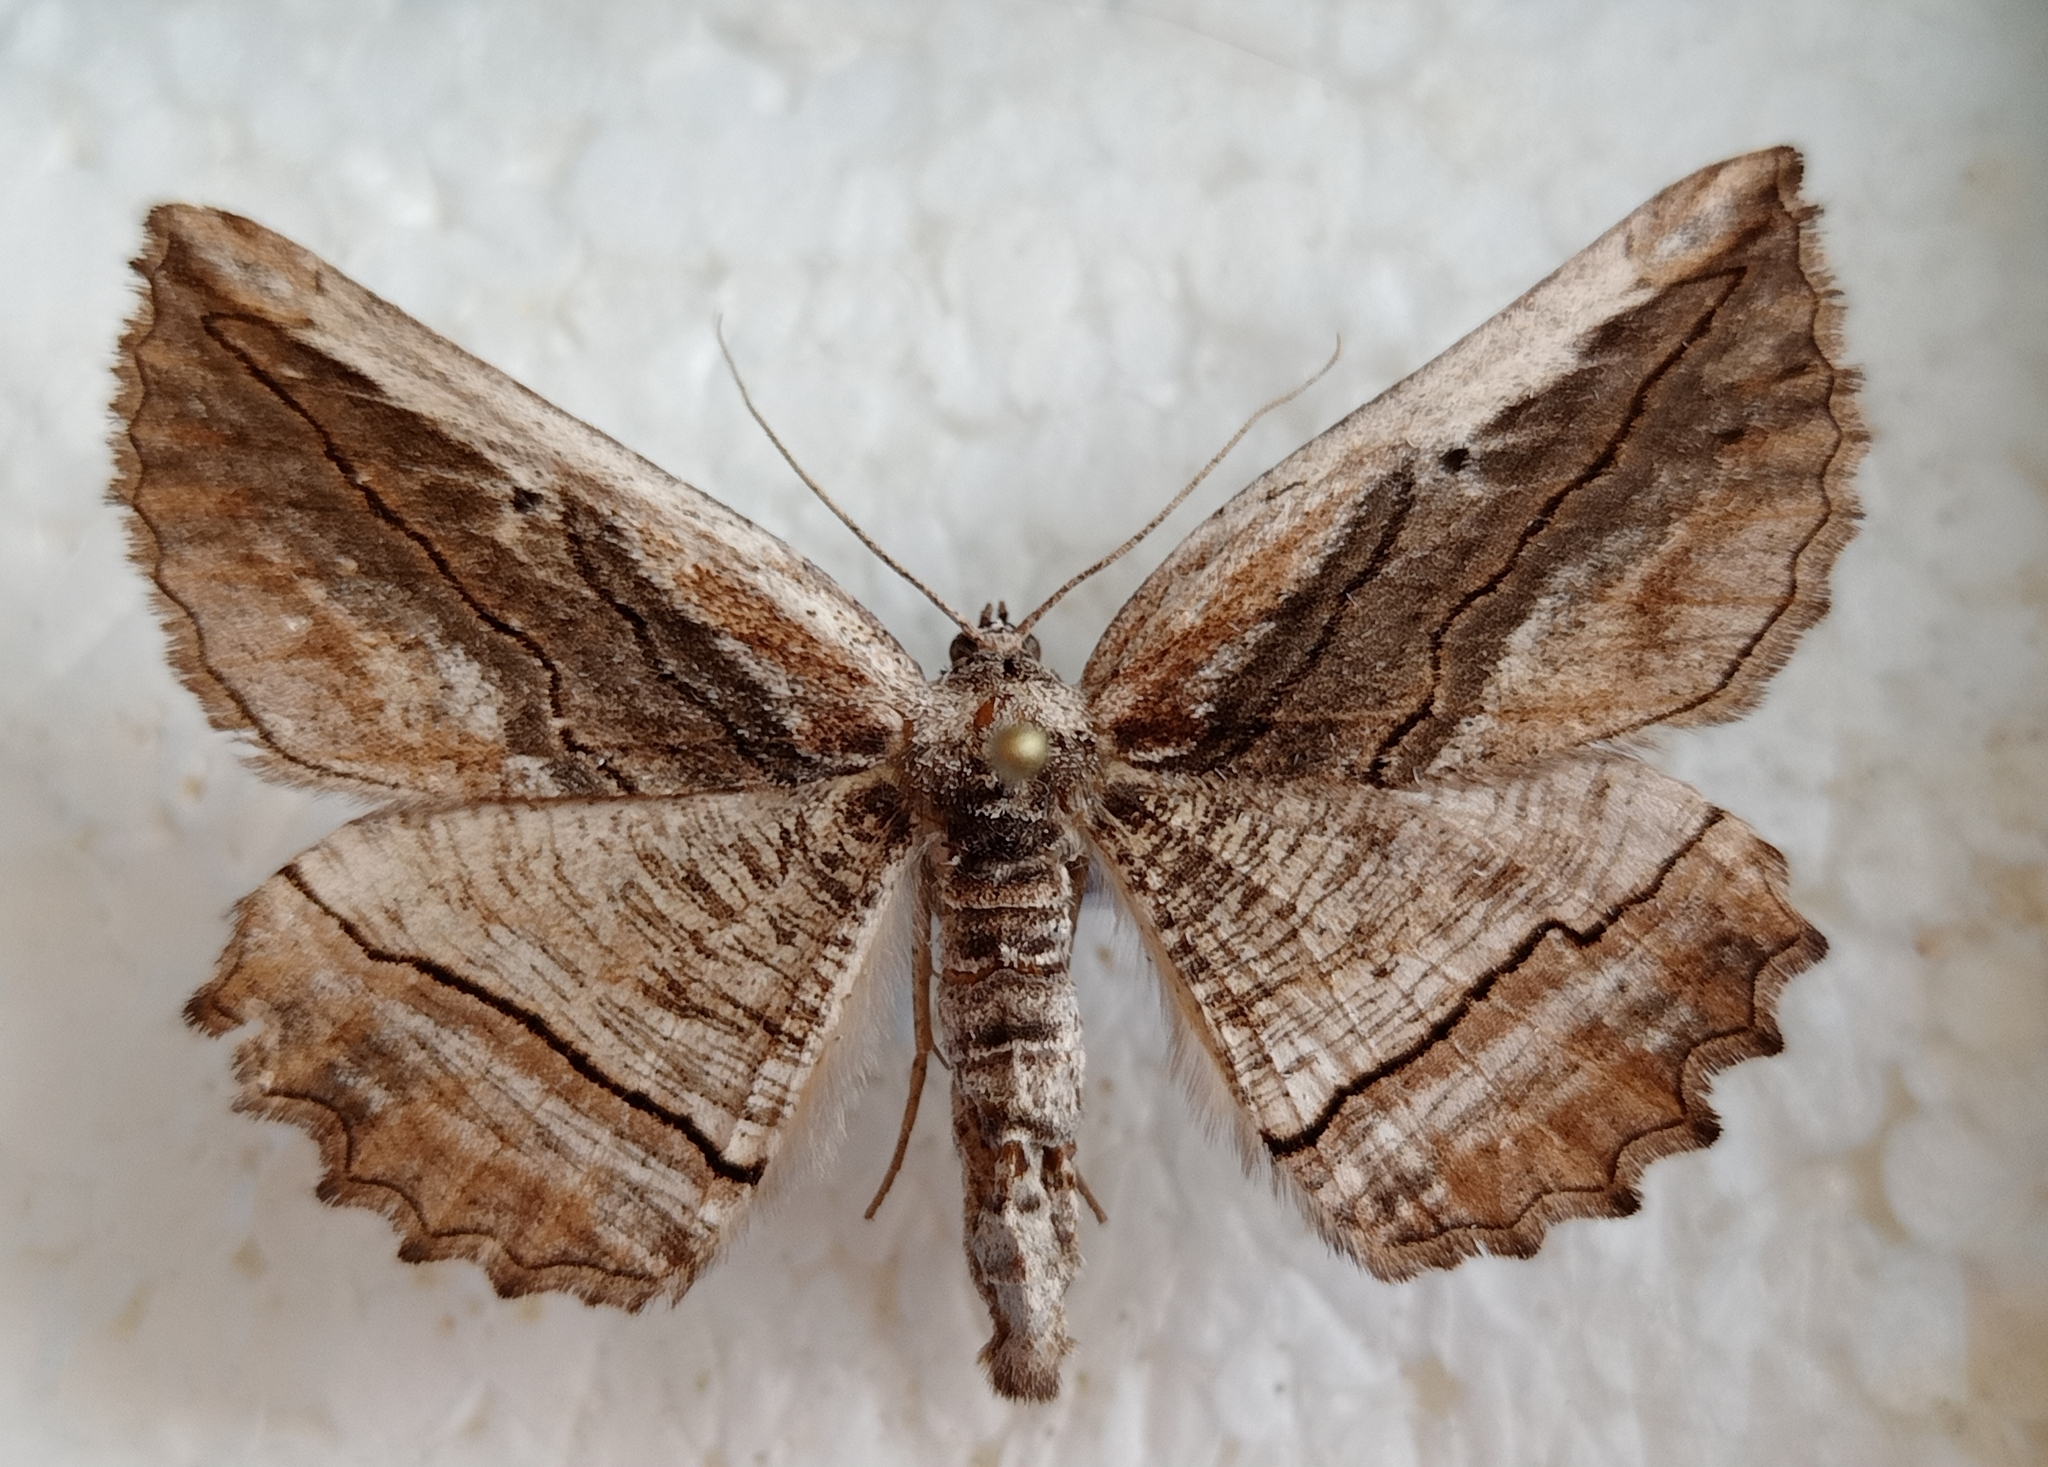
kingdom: Animalia
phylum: Arthropoda
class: Insecta
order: Lepidoptera
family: Geometridae
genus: Menophra
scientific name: Menophra nycthemeraria
